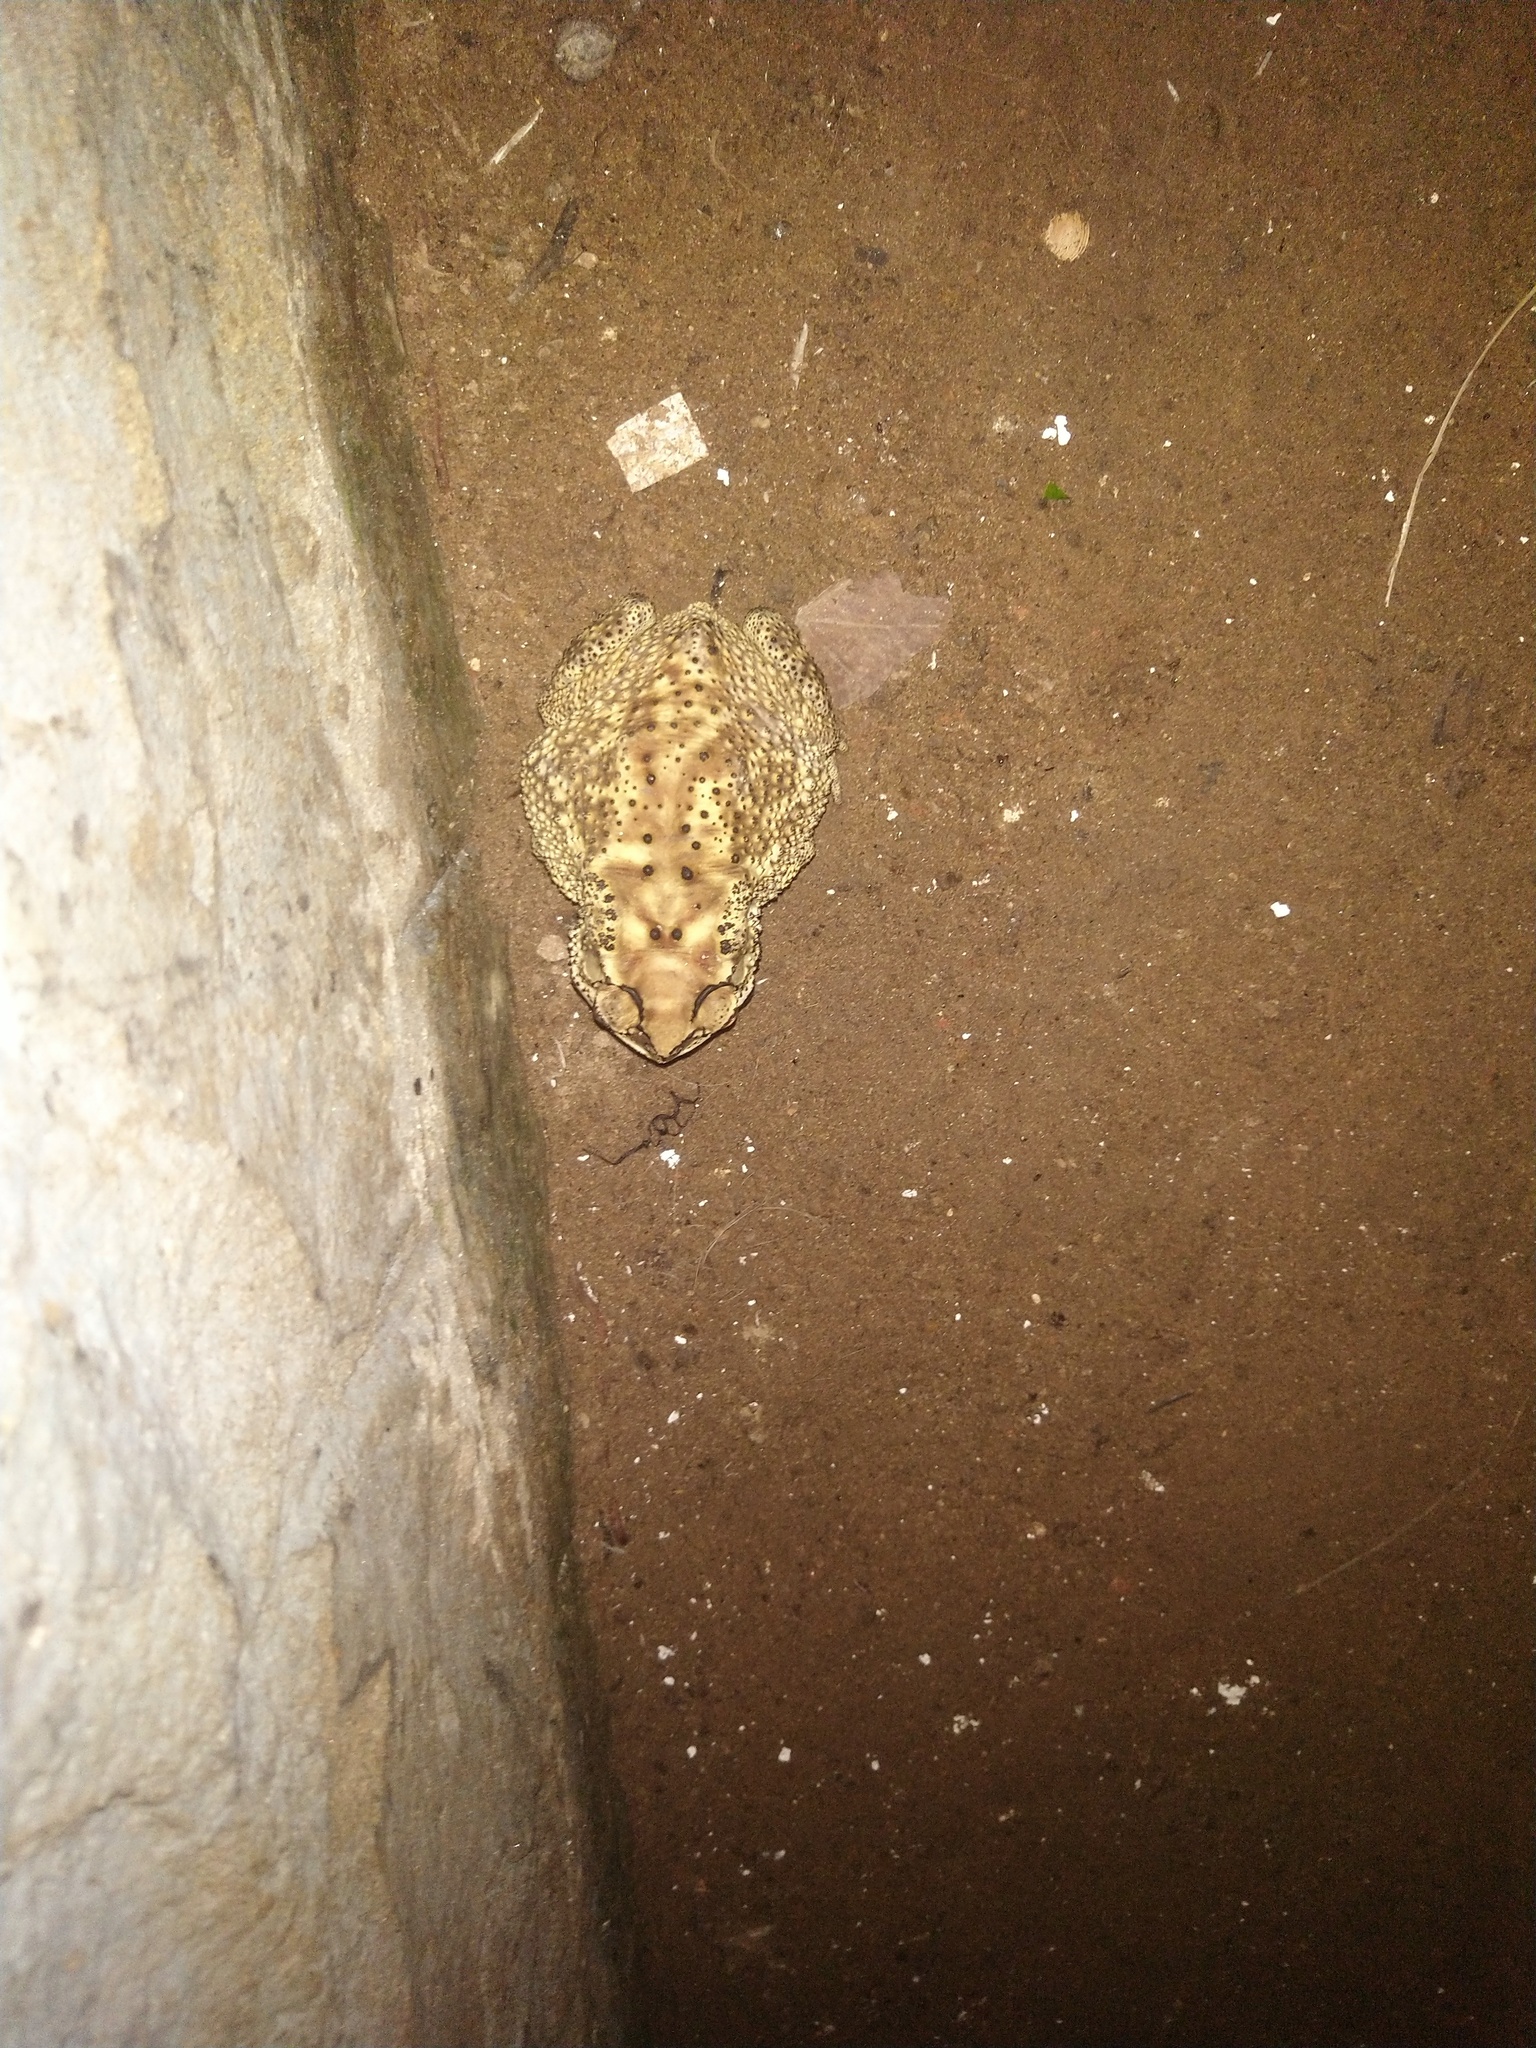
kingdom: Animalia
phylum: Chordata
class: Amphibia
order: Anura
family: Bufonidae
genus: Duttaphrynus
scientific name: Duttaphrynus melanostictus
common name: Common sunda toad
